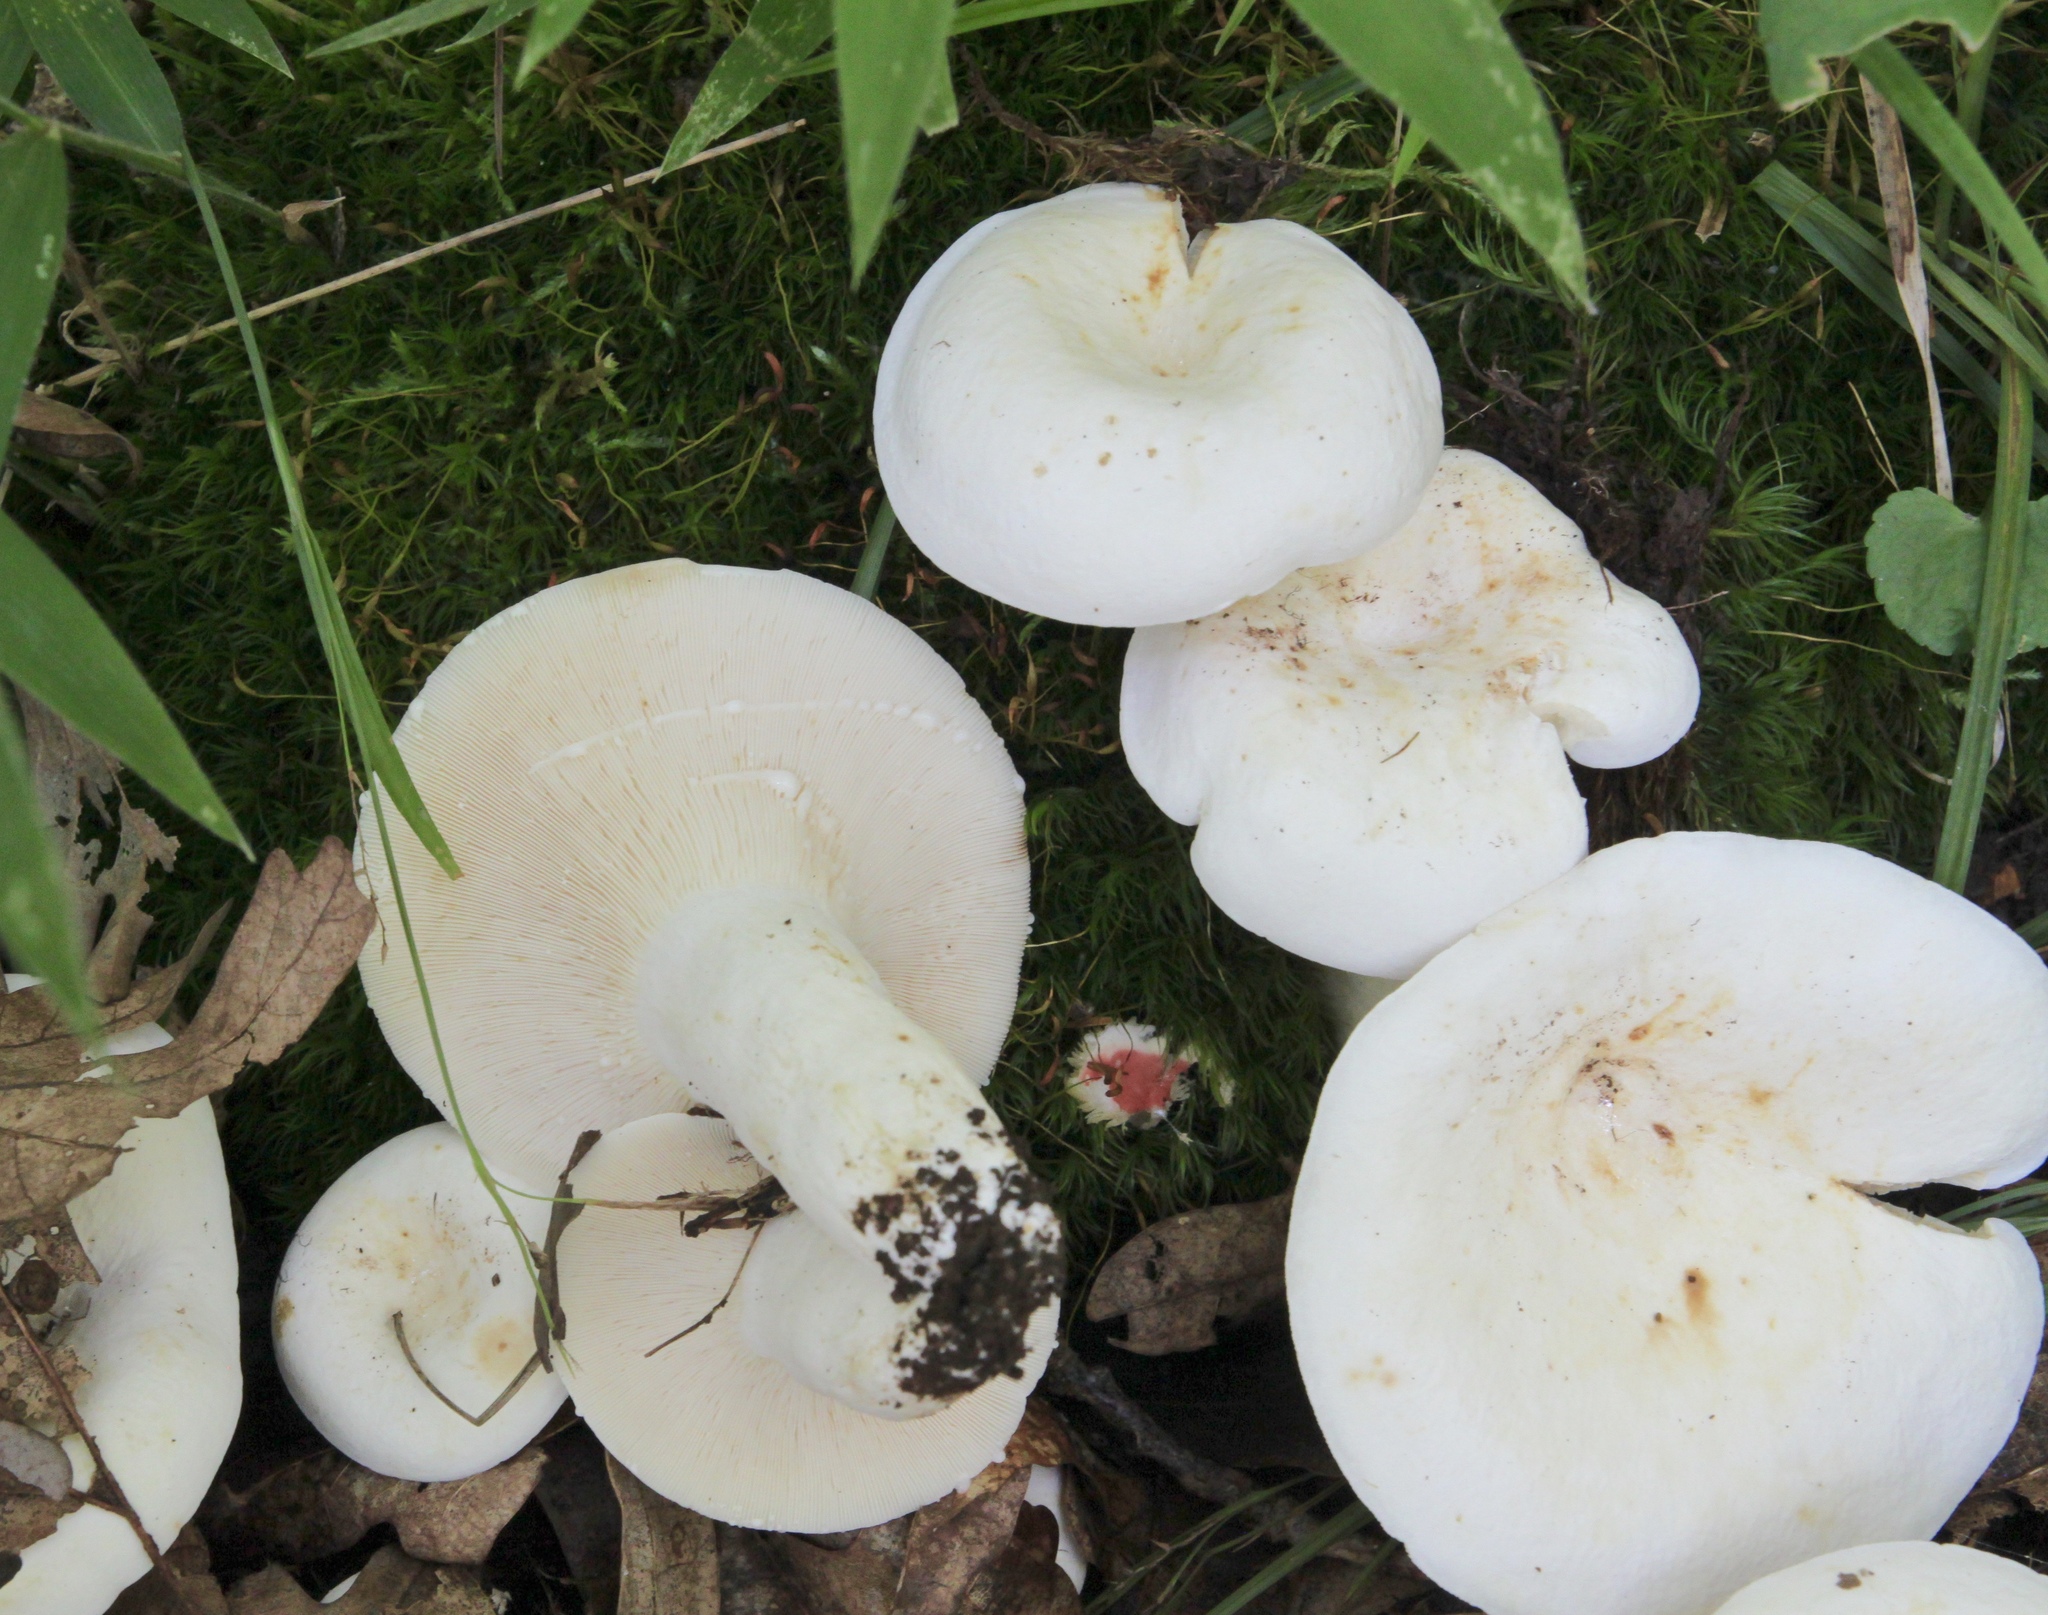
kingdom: Fungi
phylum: Basidiomycota
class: Agaricomycetes
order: Russulales
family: Russulaceae
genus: Lactifluus
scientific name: Lactifluus piperatus
